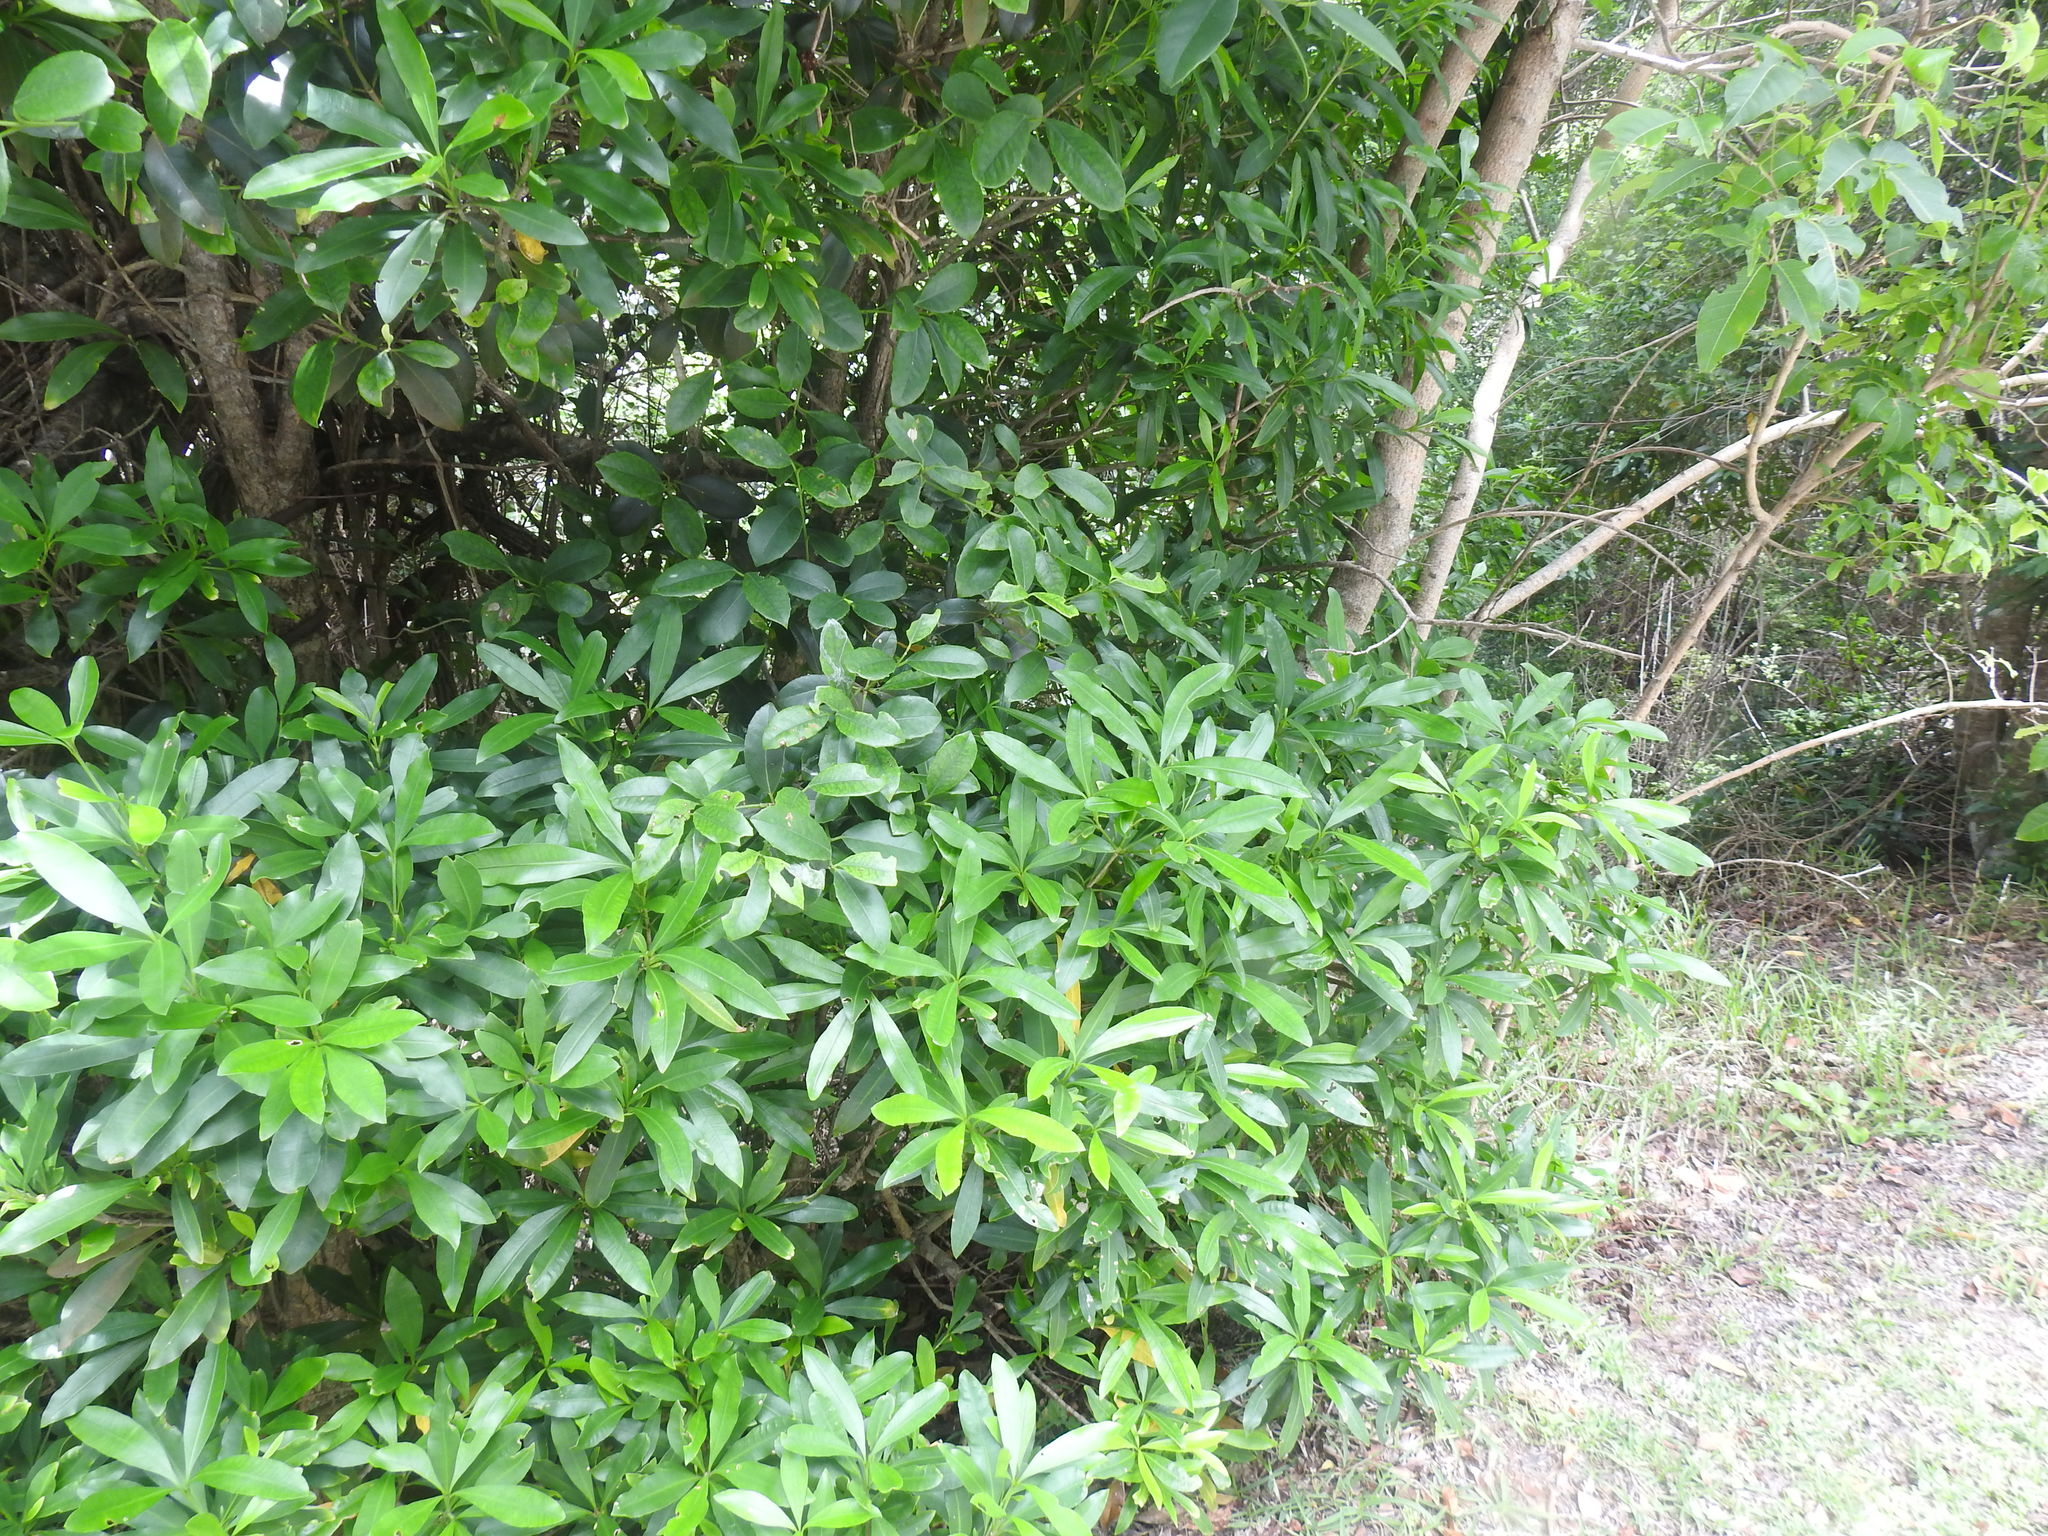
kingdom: Plantae
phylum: Tracheophyta
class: Magnoliopsida
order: Gentianales
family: Apocynaceae
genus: Gonioma
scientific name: Gonioma kamassi
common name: Kamassi
